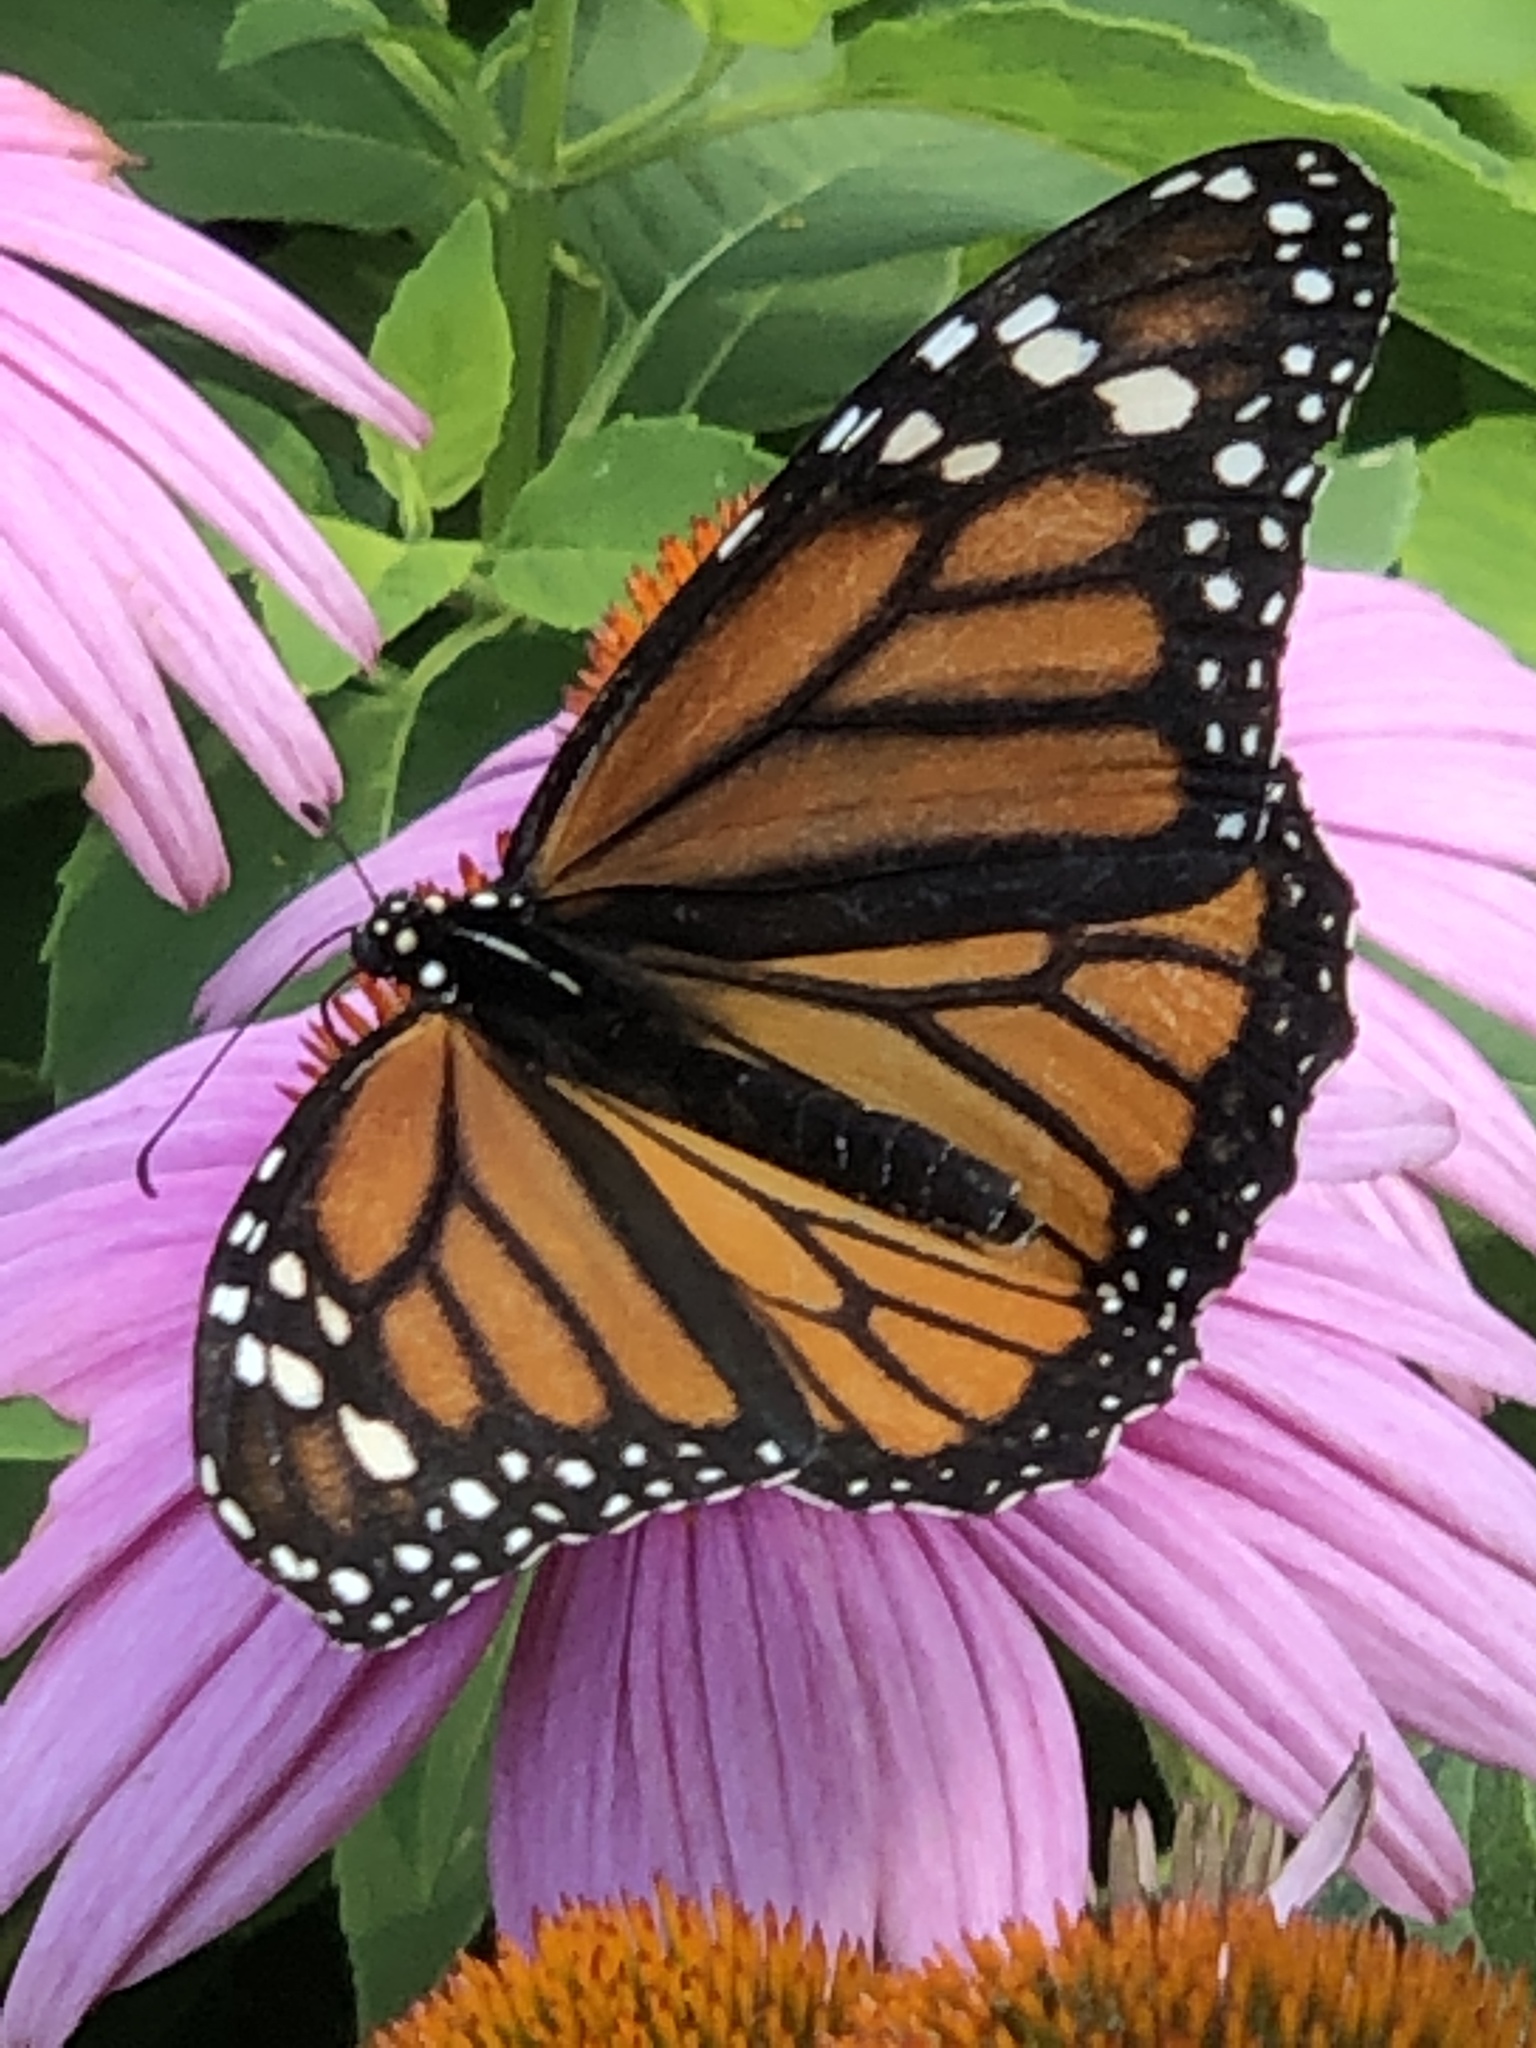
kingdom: Animalia
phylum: Arthropoda
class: Insecta
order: Lepidoptera
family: Nymphalidae
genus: Danaus
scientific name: Danaus plexippus
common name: Monarch
